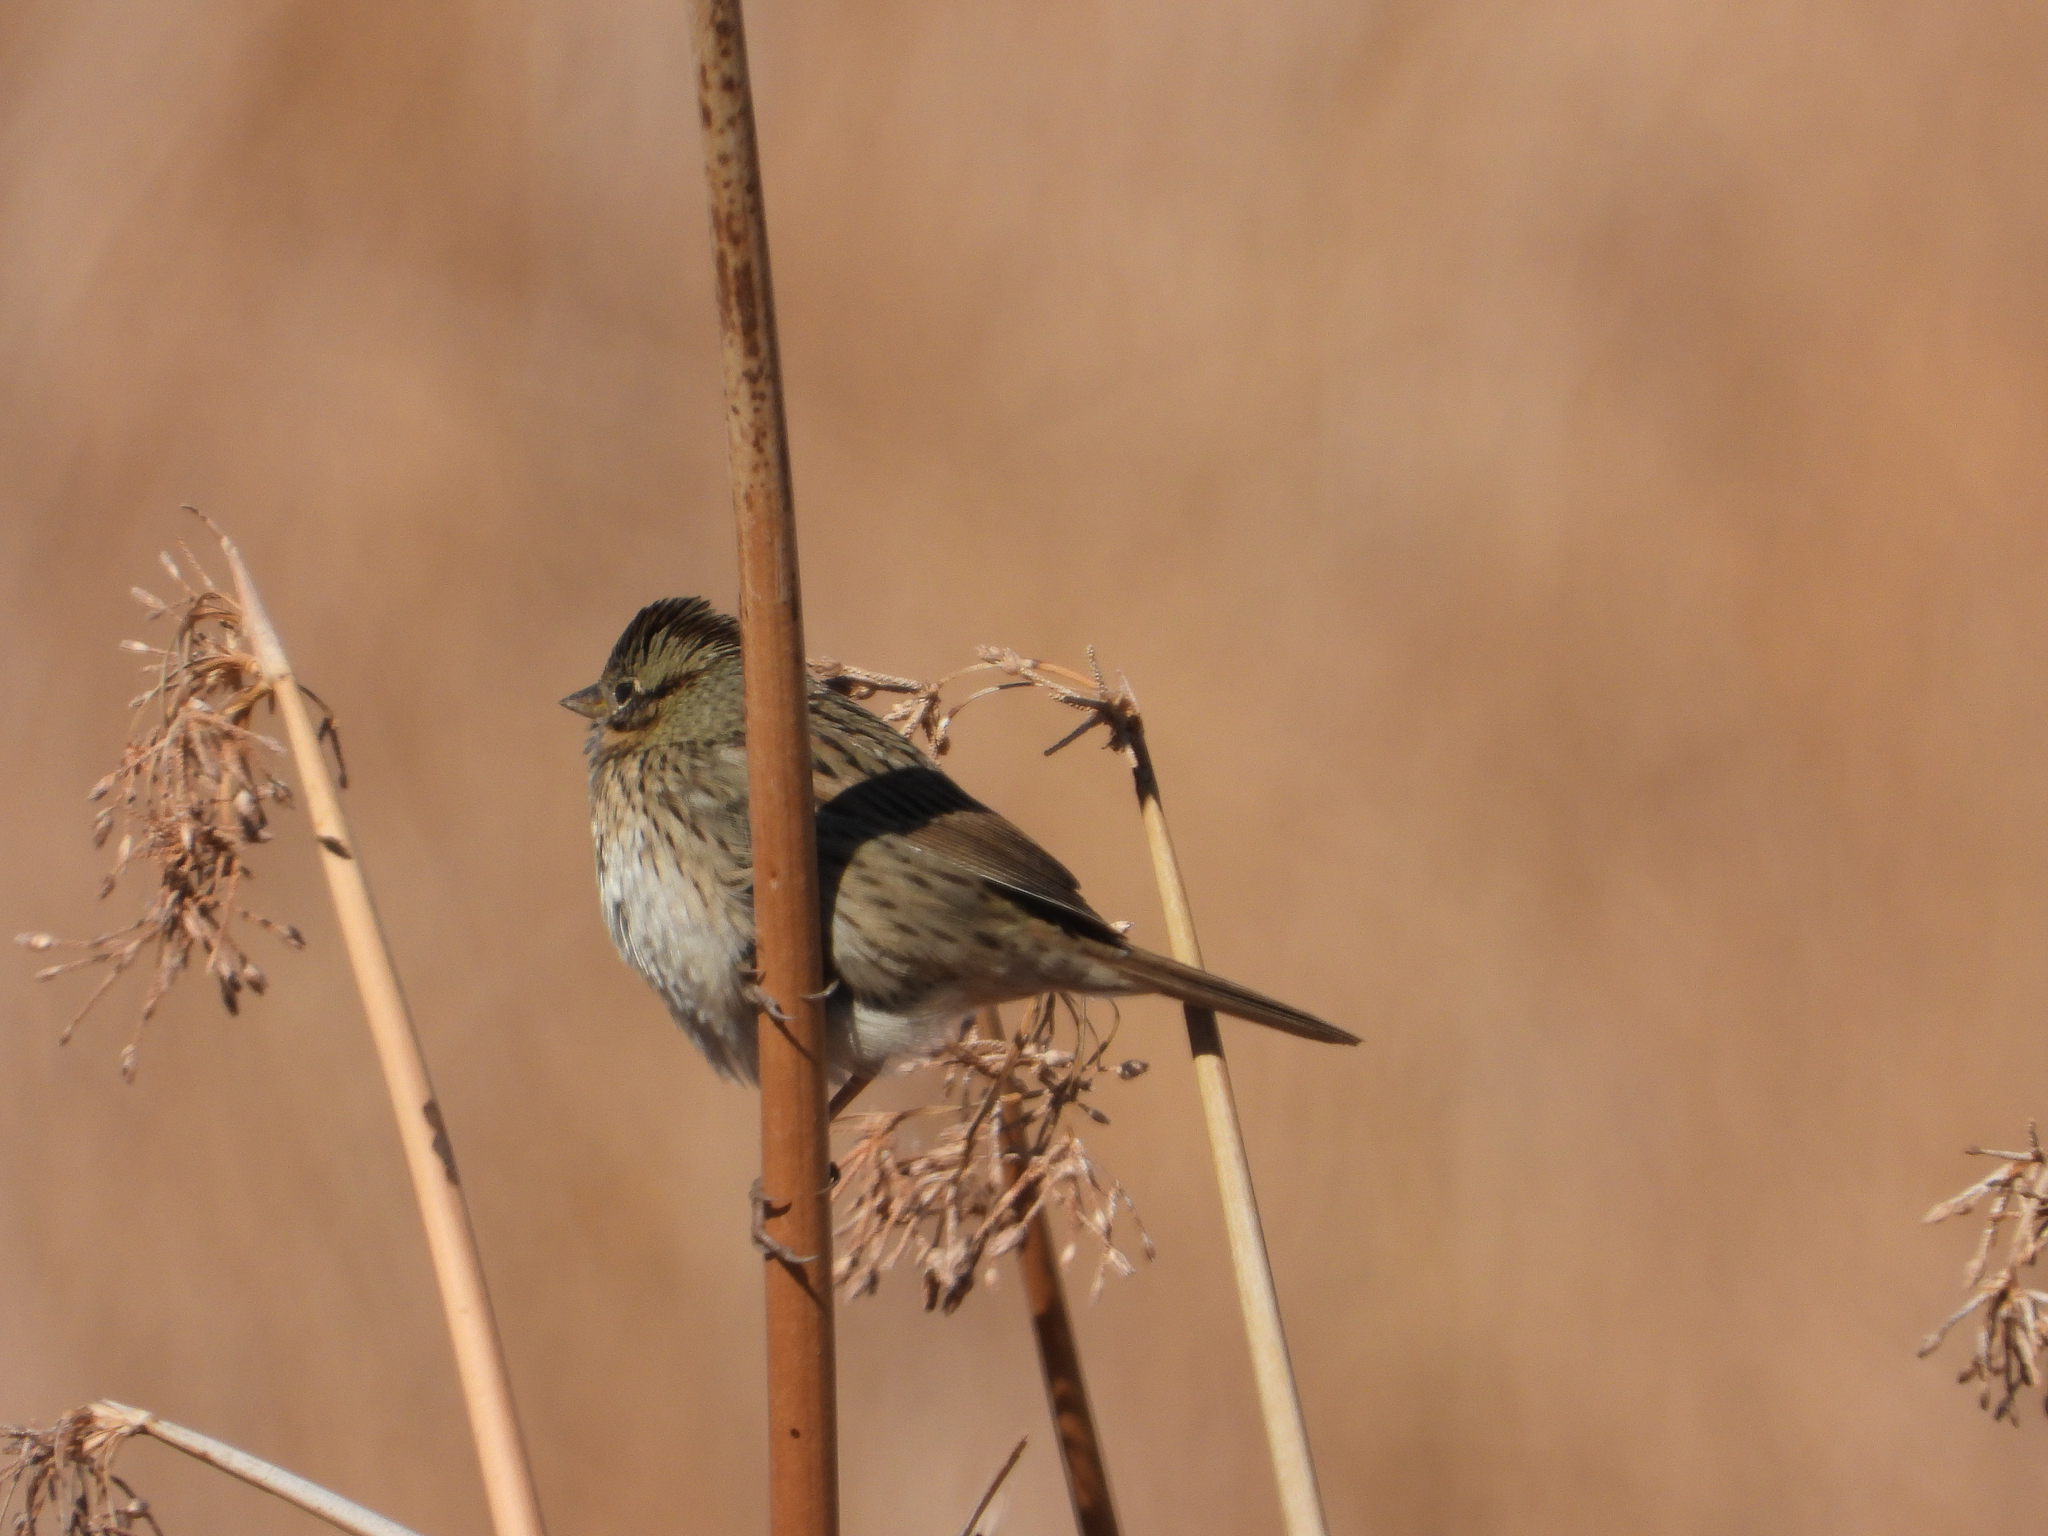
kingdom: Animalia
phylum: Chordata
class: Aves
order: Passeriformes
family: Passerellidae
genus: Melospiza
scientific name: Melospiza lincolnii
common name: Lincoln's sparrow
